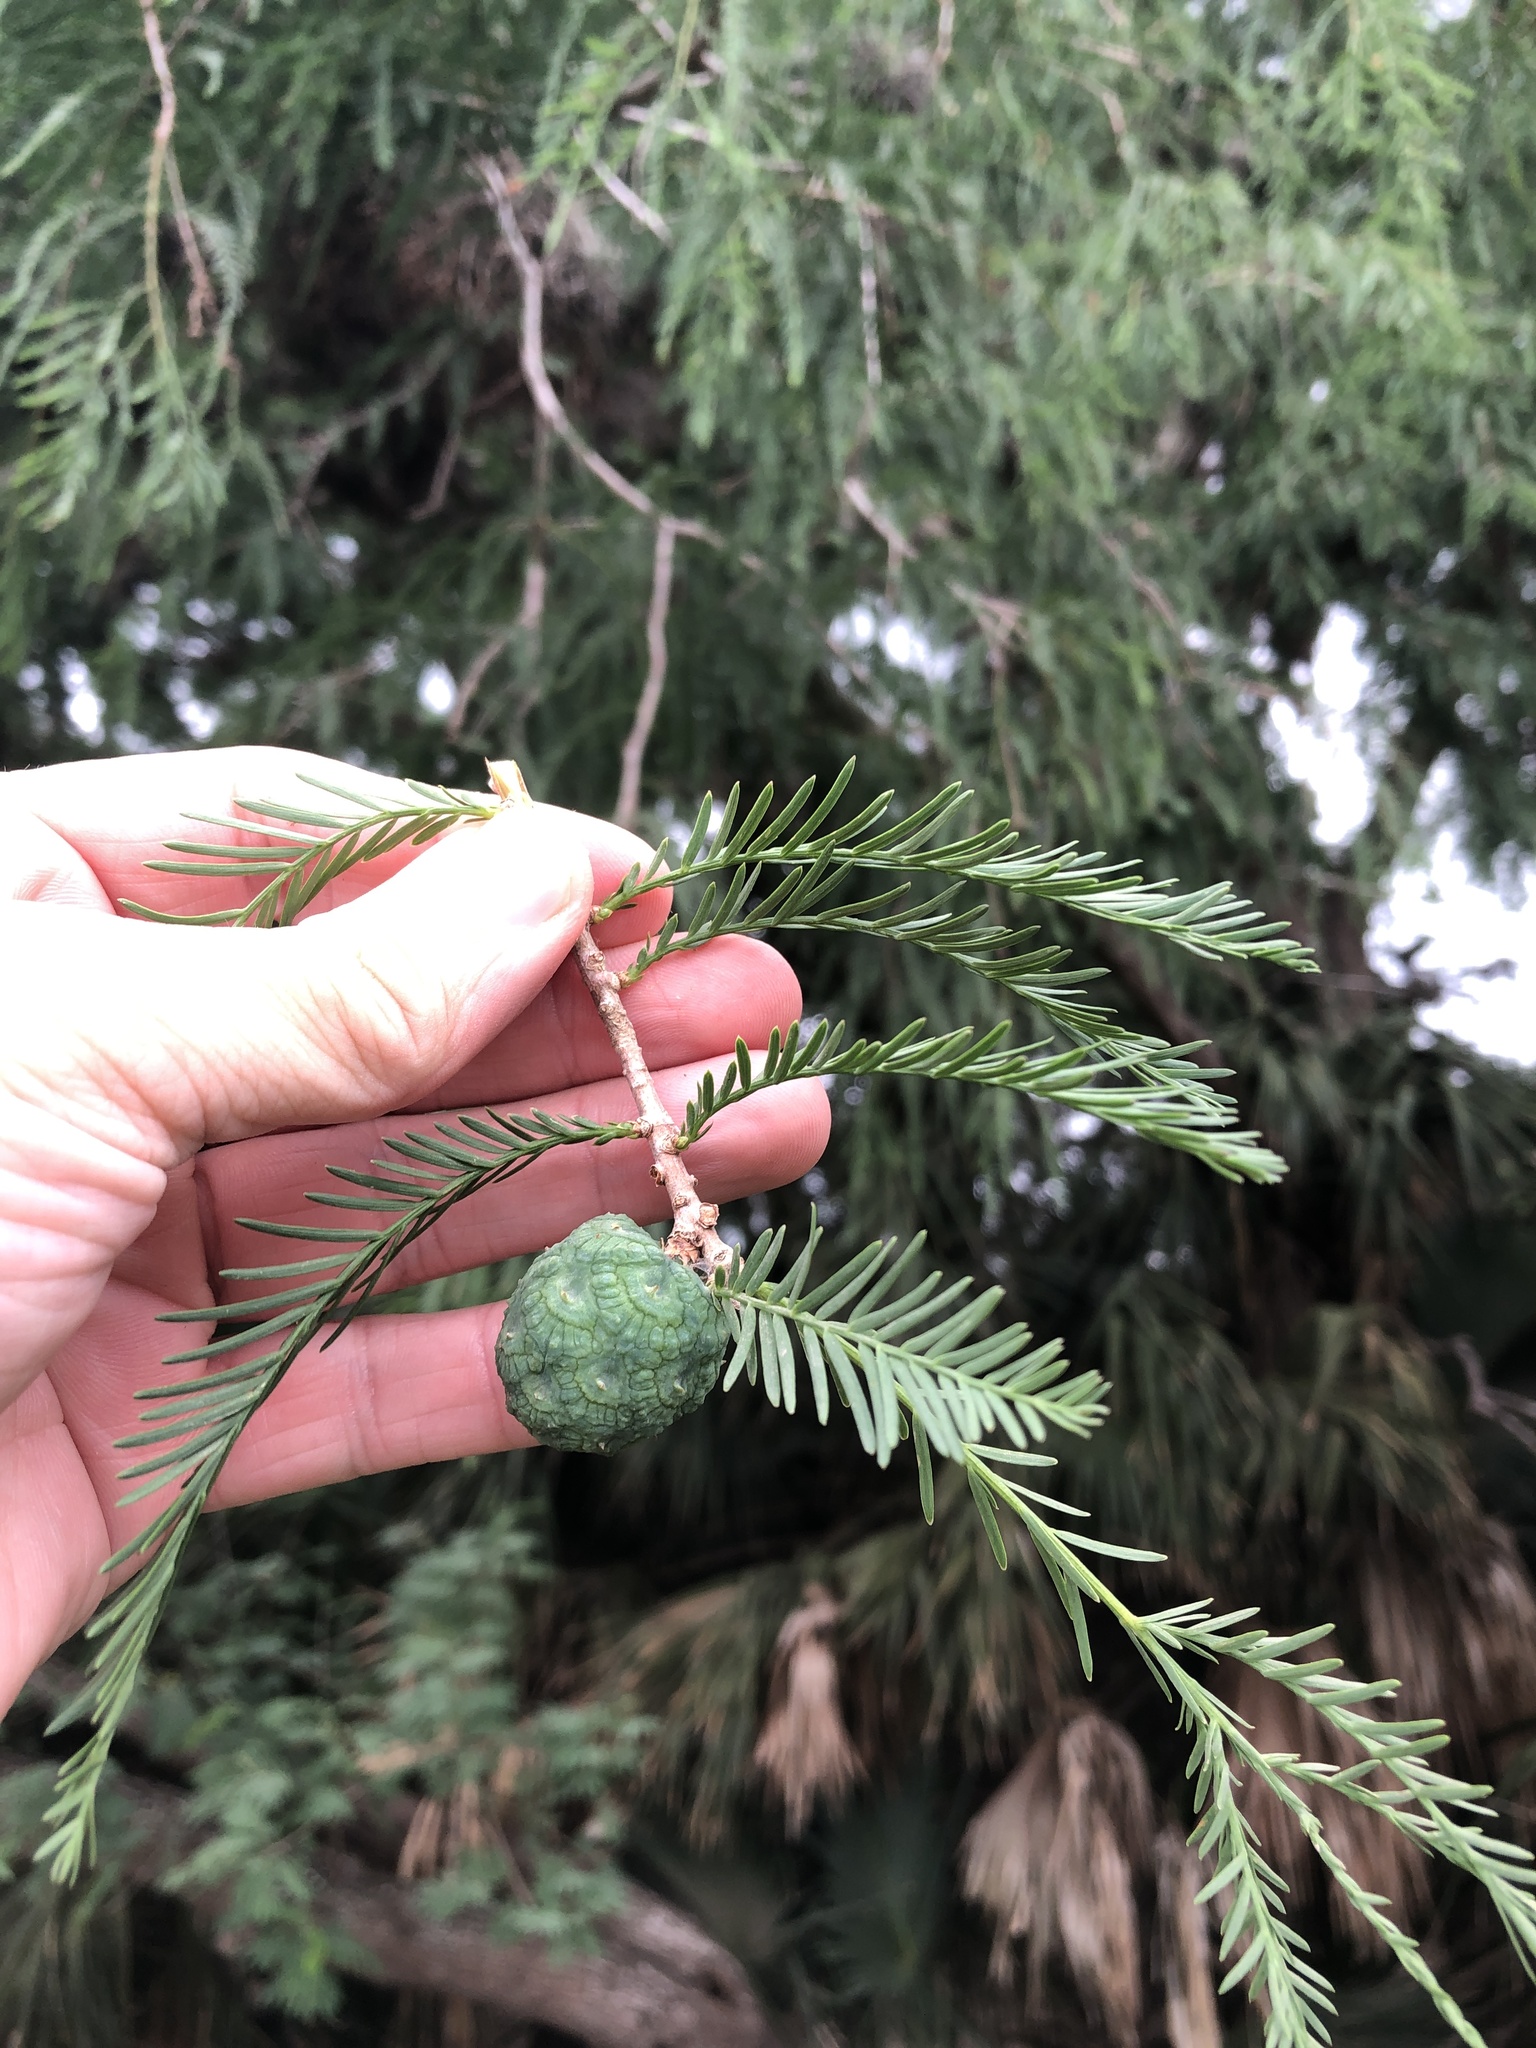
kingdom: Plantae
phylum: Tracheophyta
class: Pinopsida
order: Pinales
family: Cupressaceae
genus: Taxodium
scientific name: Taxodium mucronatum
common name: Montezume bald cypress
